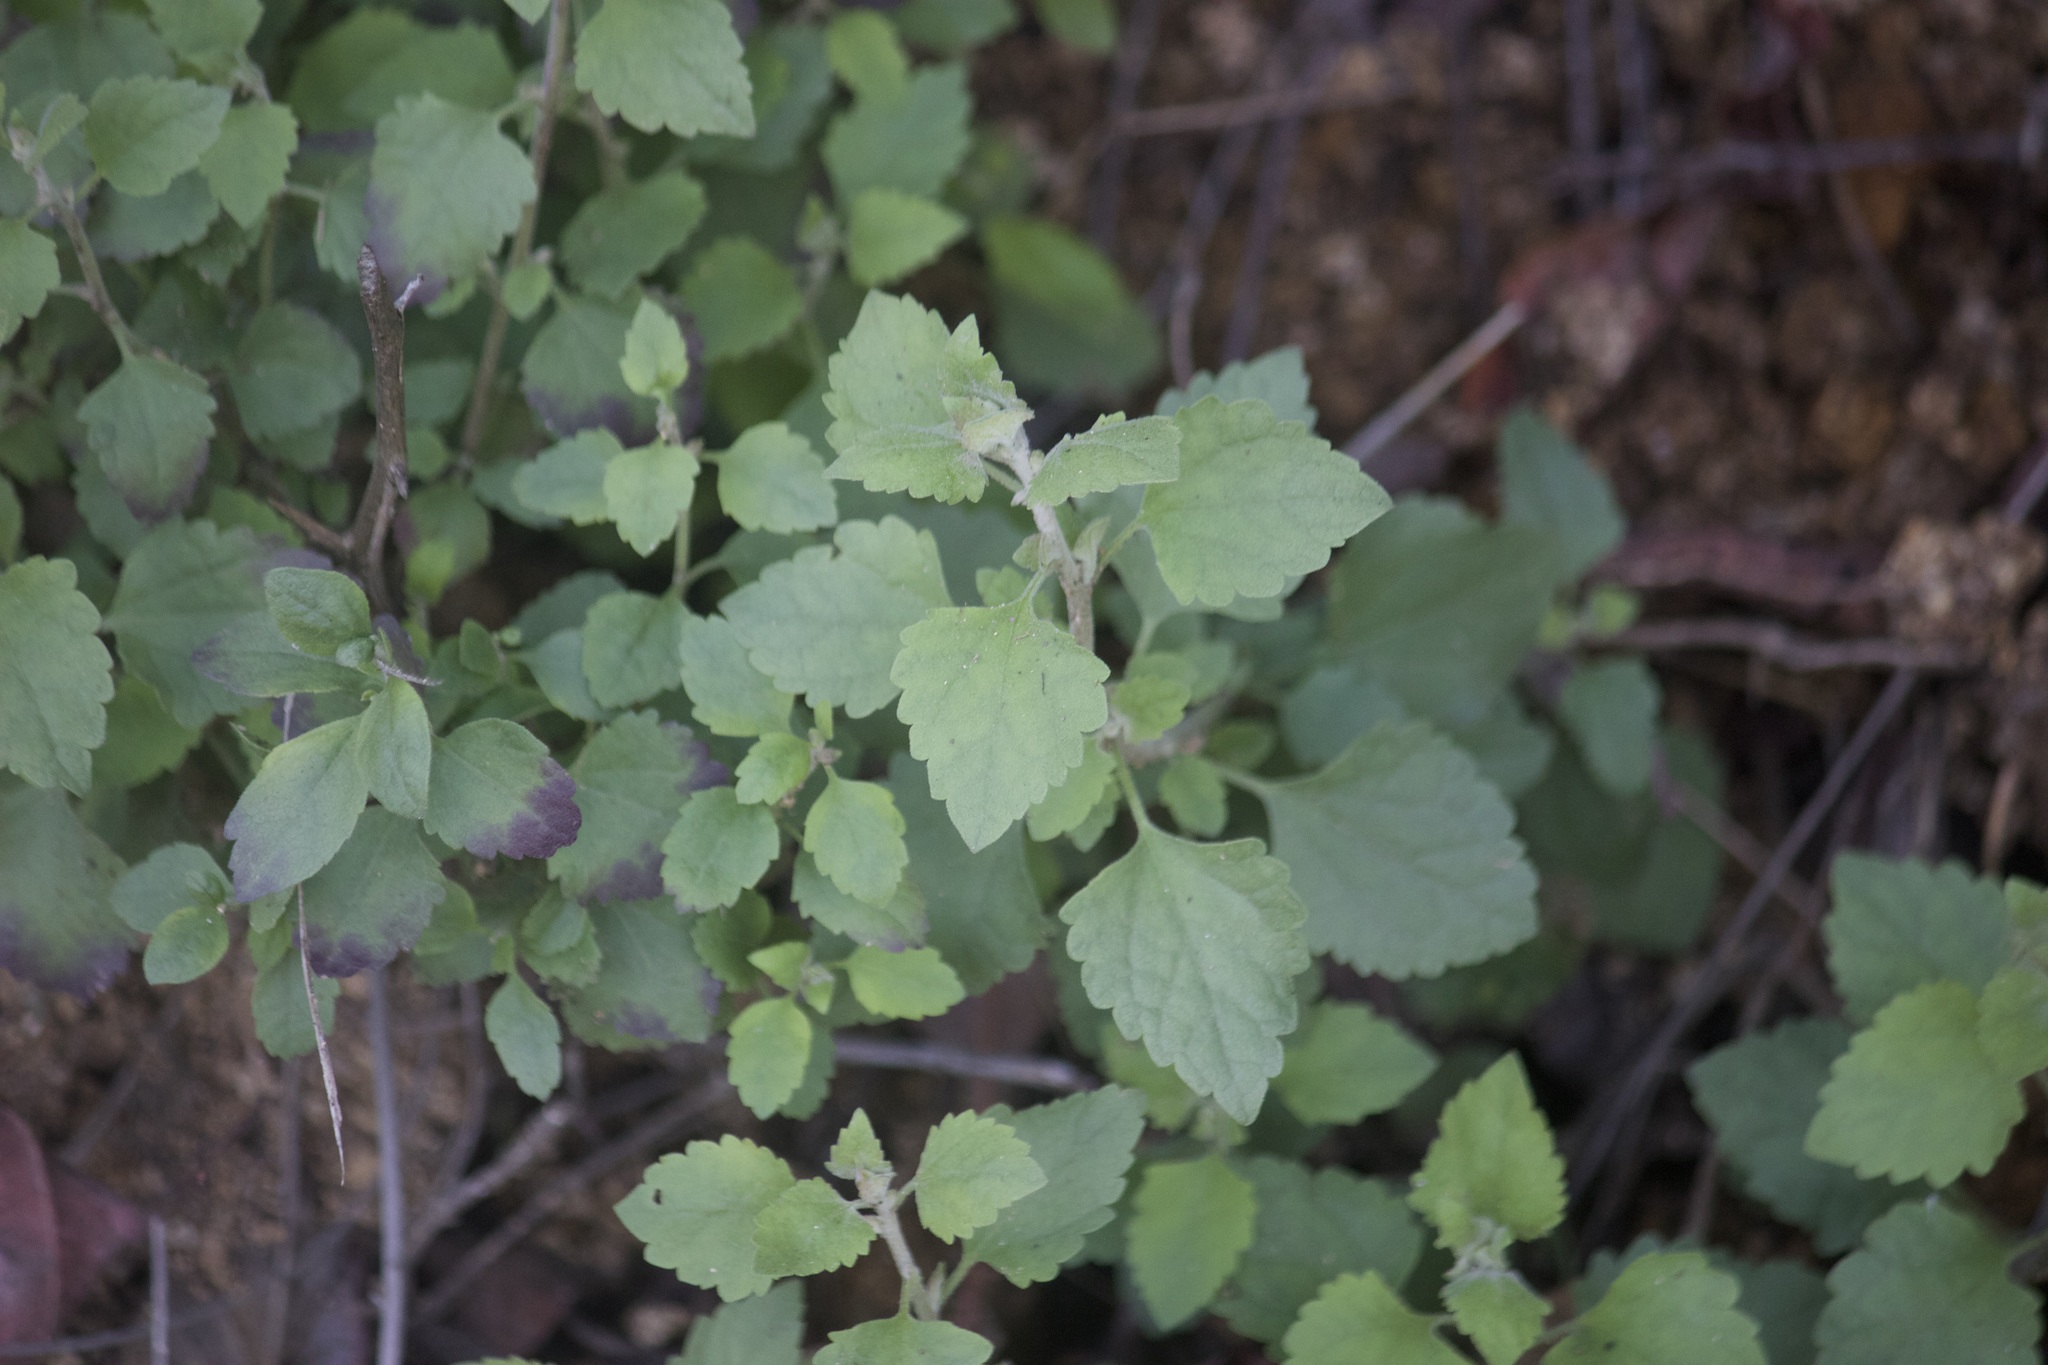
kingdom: Plantae
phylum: Tracheophyta
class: Magnoliopsida
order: Asterales
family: Asteraceae
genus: Brickellia
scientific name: Brickellia californica
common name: California brickellbush
